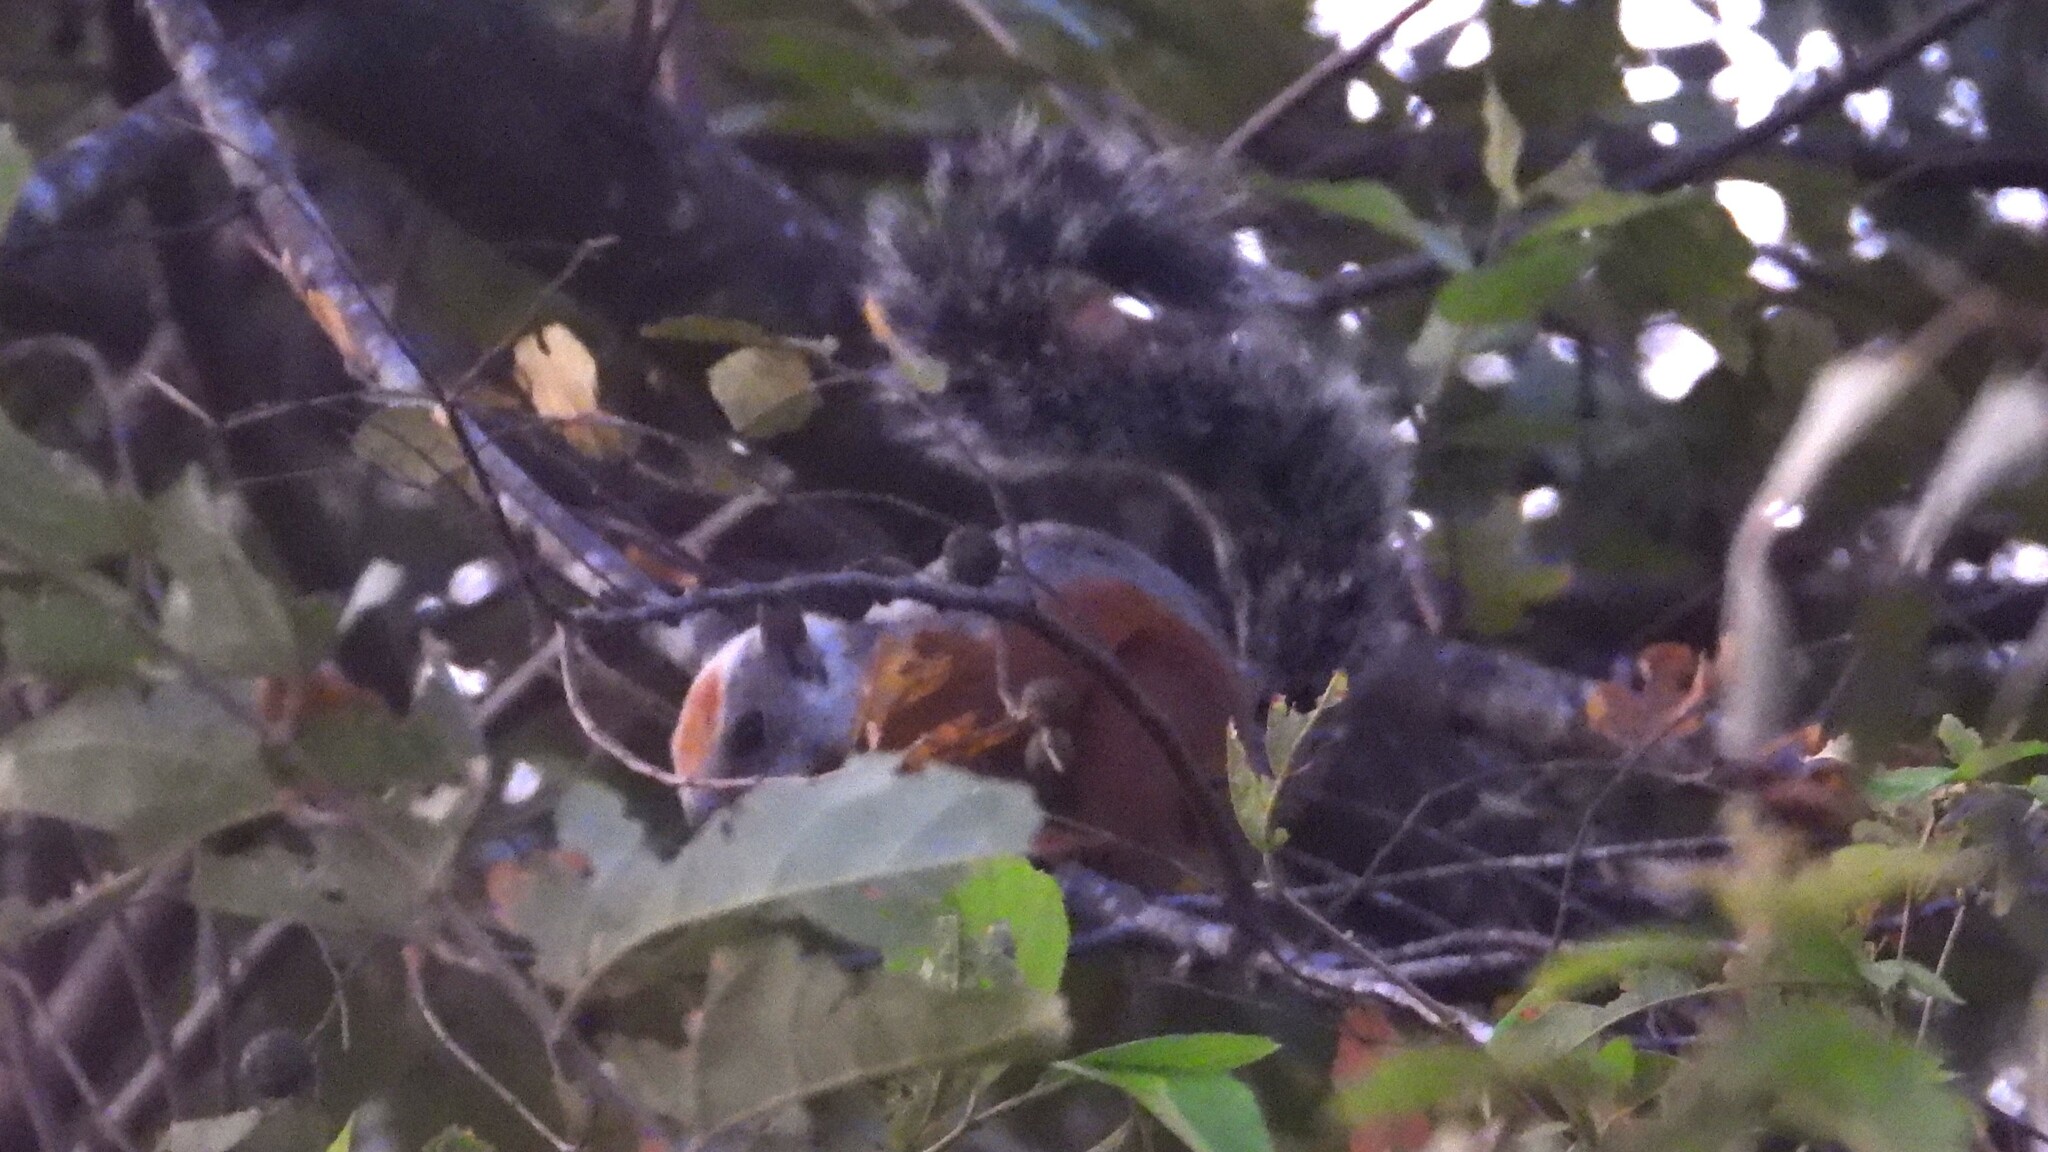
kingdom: Animalia
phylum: Chordata
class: Mammalia
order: Rodentia
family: Sciuridae
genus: Sciurus
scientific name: Sciurus variegatoides
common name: Variegated squirrel
